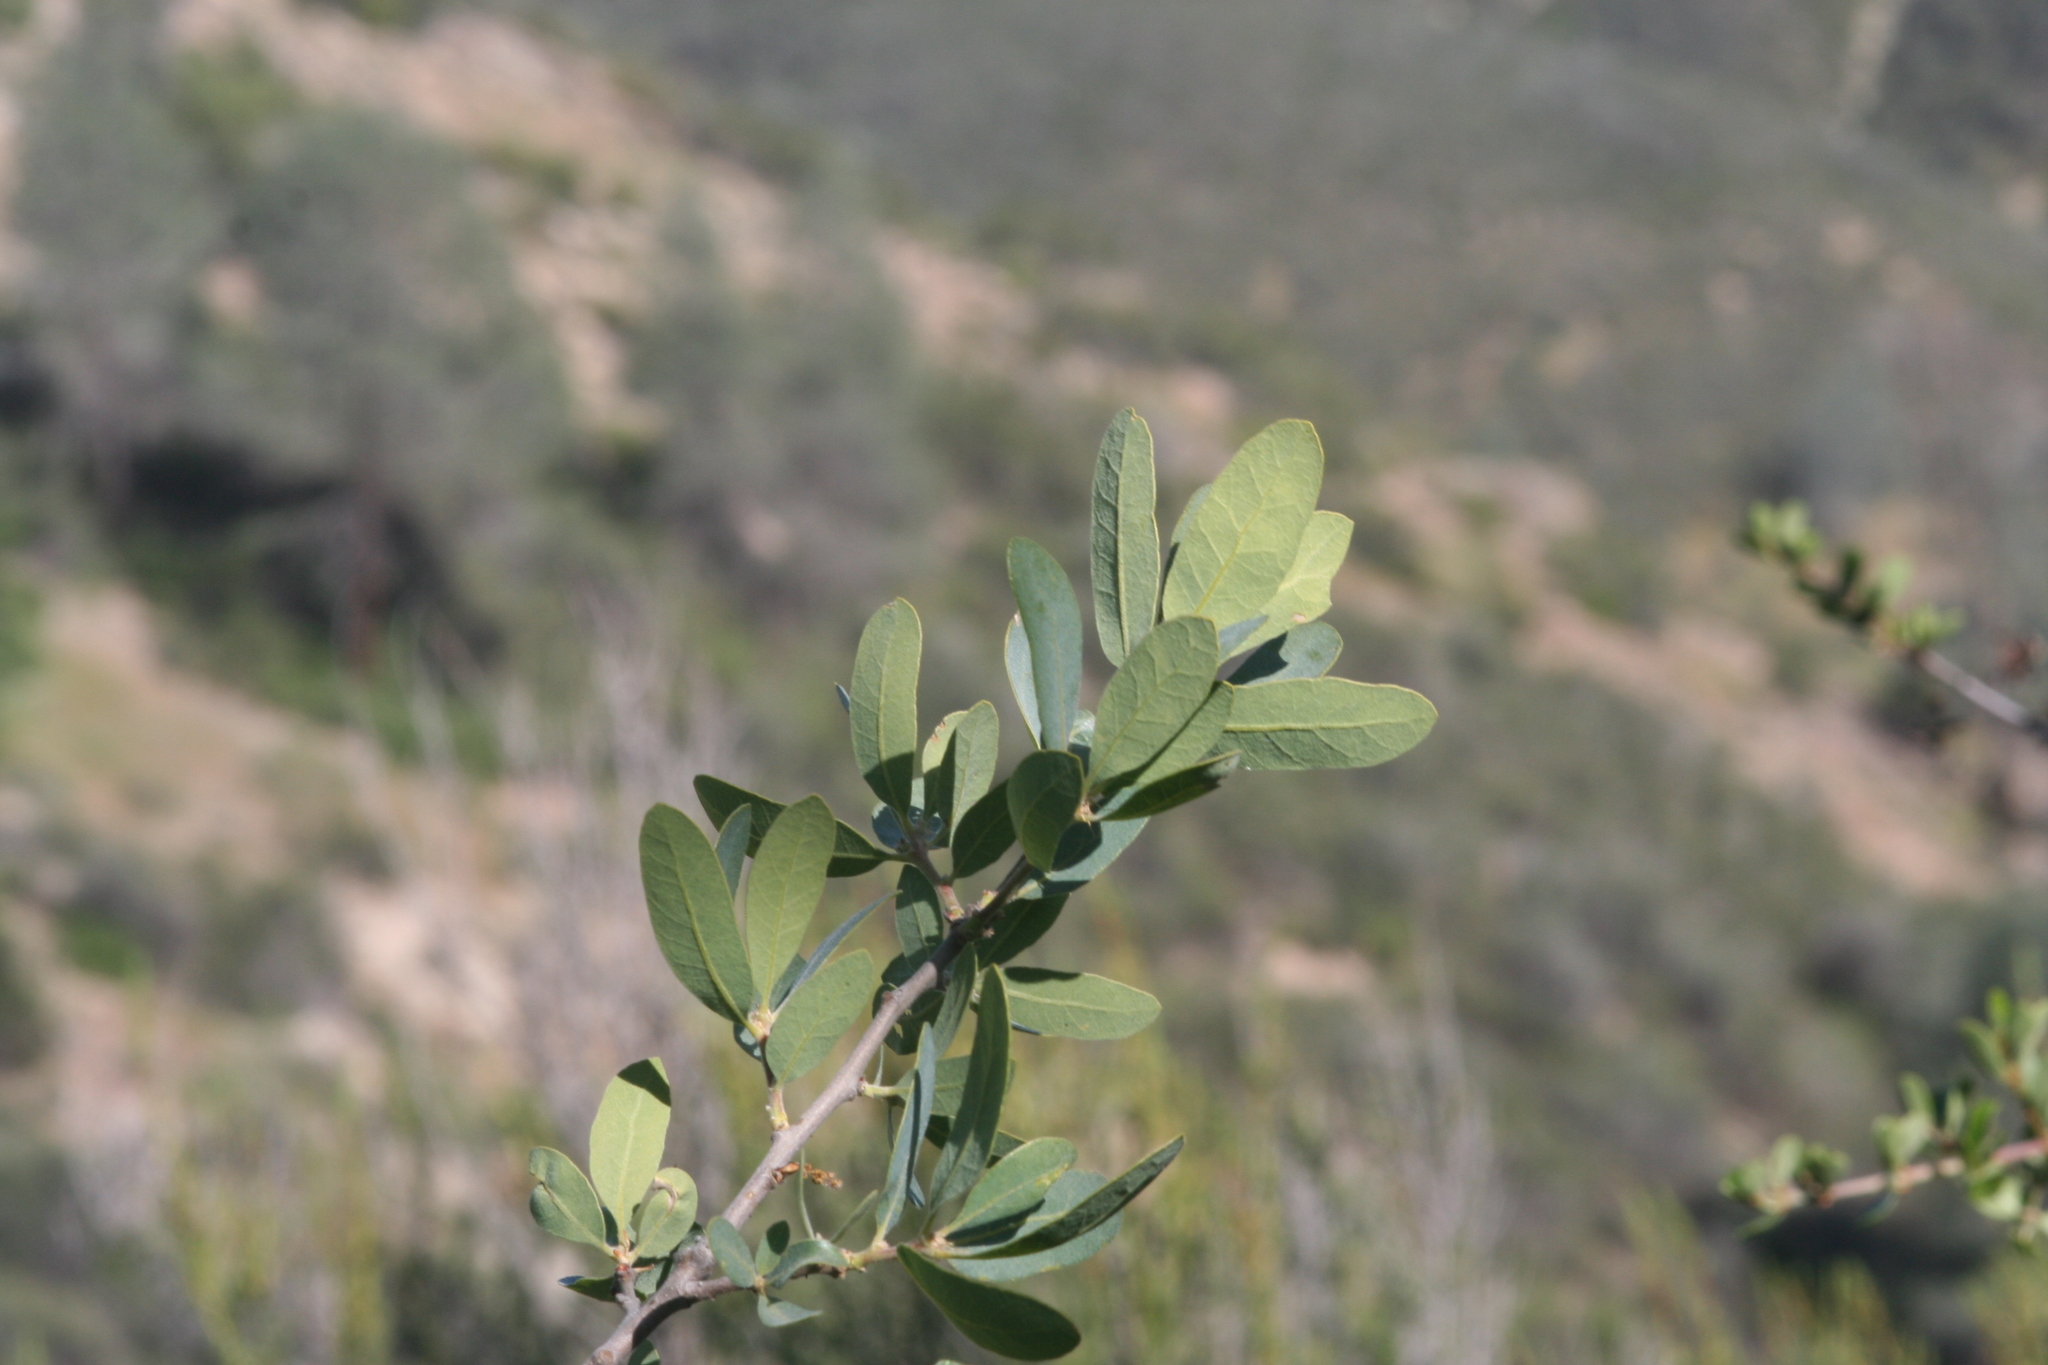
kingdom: Plantae
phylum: Tracheophyta
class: Magnoliopsida
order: Fagales
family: Fagaceae
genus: Quercus
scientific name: Quercus douglasii
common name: Blue oak
